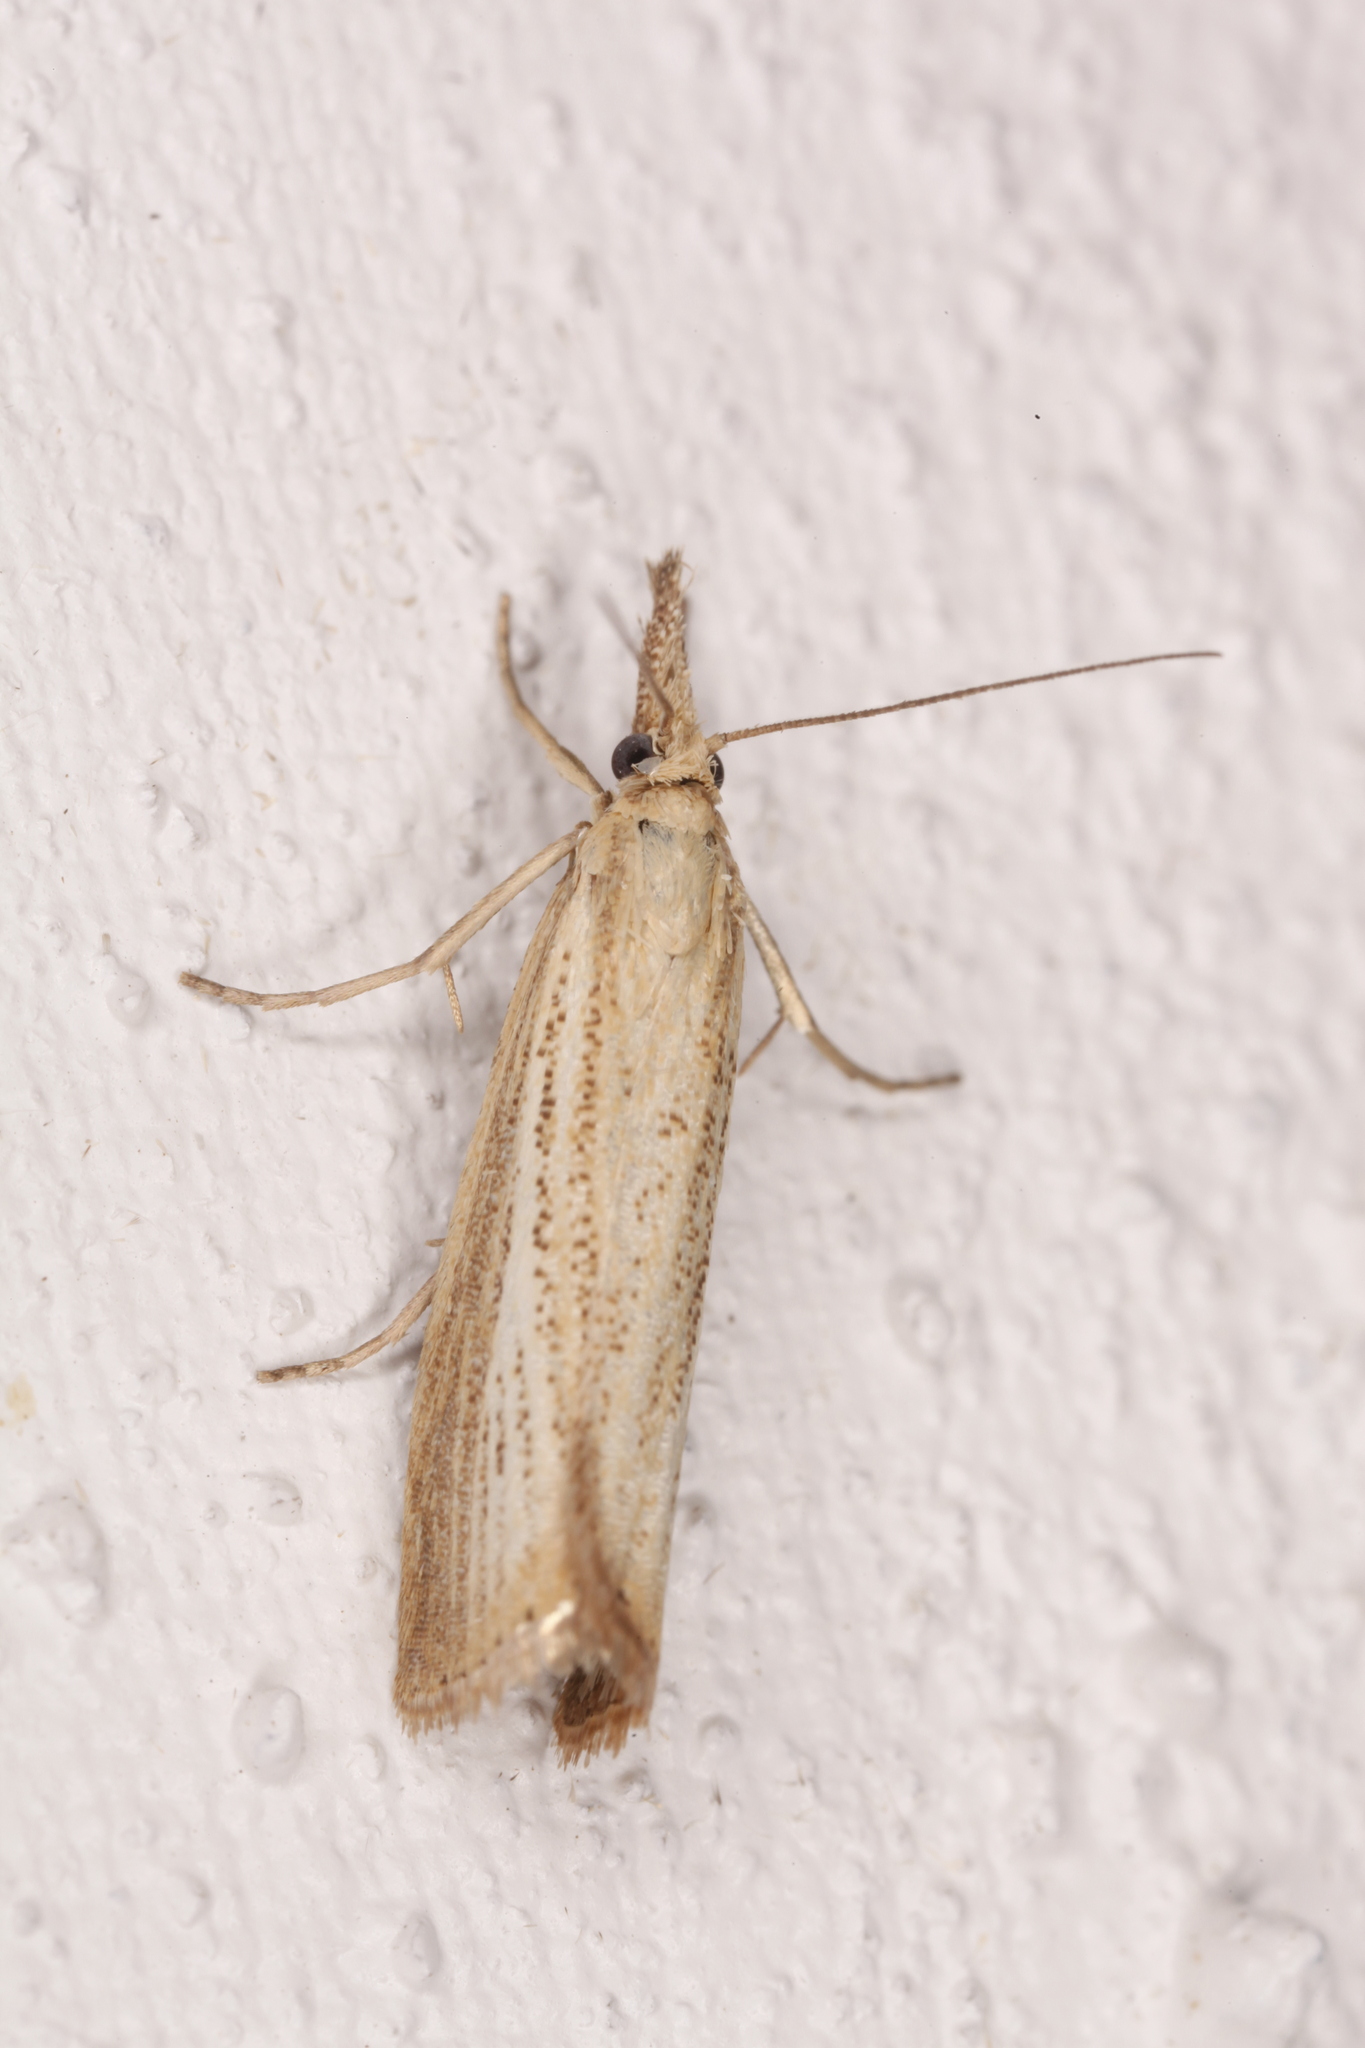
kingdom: Animalia
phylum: Arthropoda
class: Insecta
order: Lepidoptera
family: Crambidae
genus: Agriphila
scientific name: Agriphila straminella
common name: Straw grass-veneer
